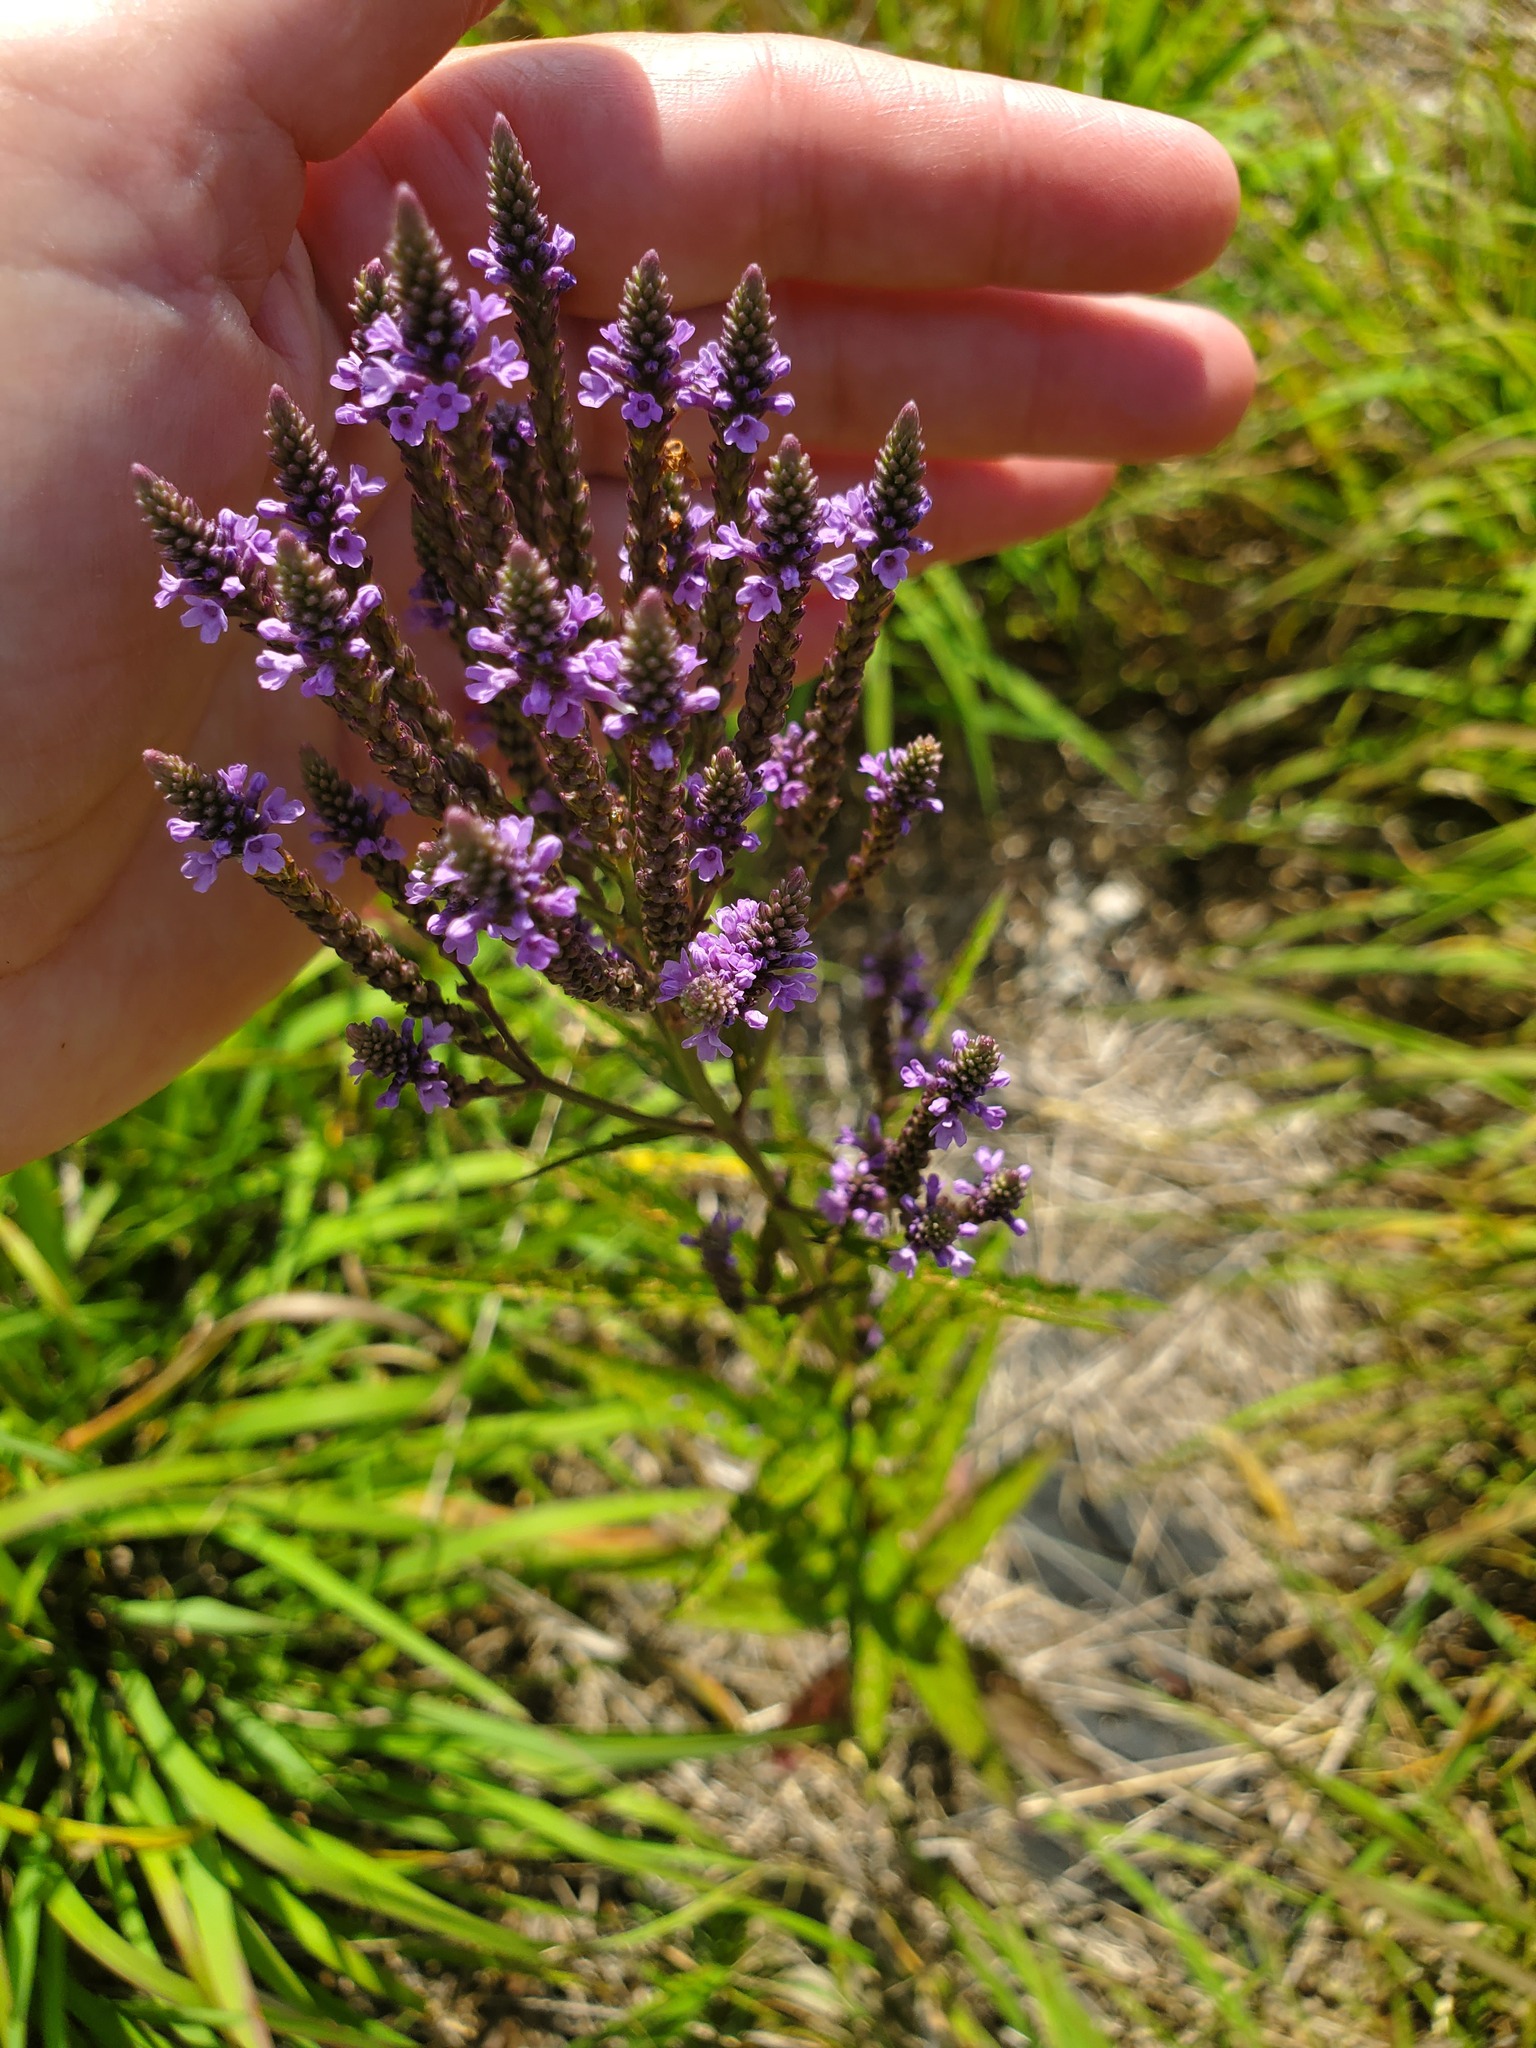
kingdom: Plantae
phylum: Tracheophyta
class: Magnoliopsida
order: Lamiales
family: Verbenaceae
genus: Verbena
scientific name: Verbena hastata
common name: American blue vervain
